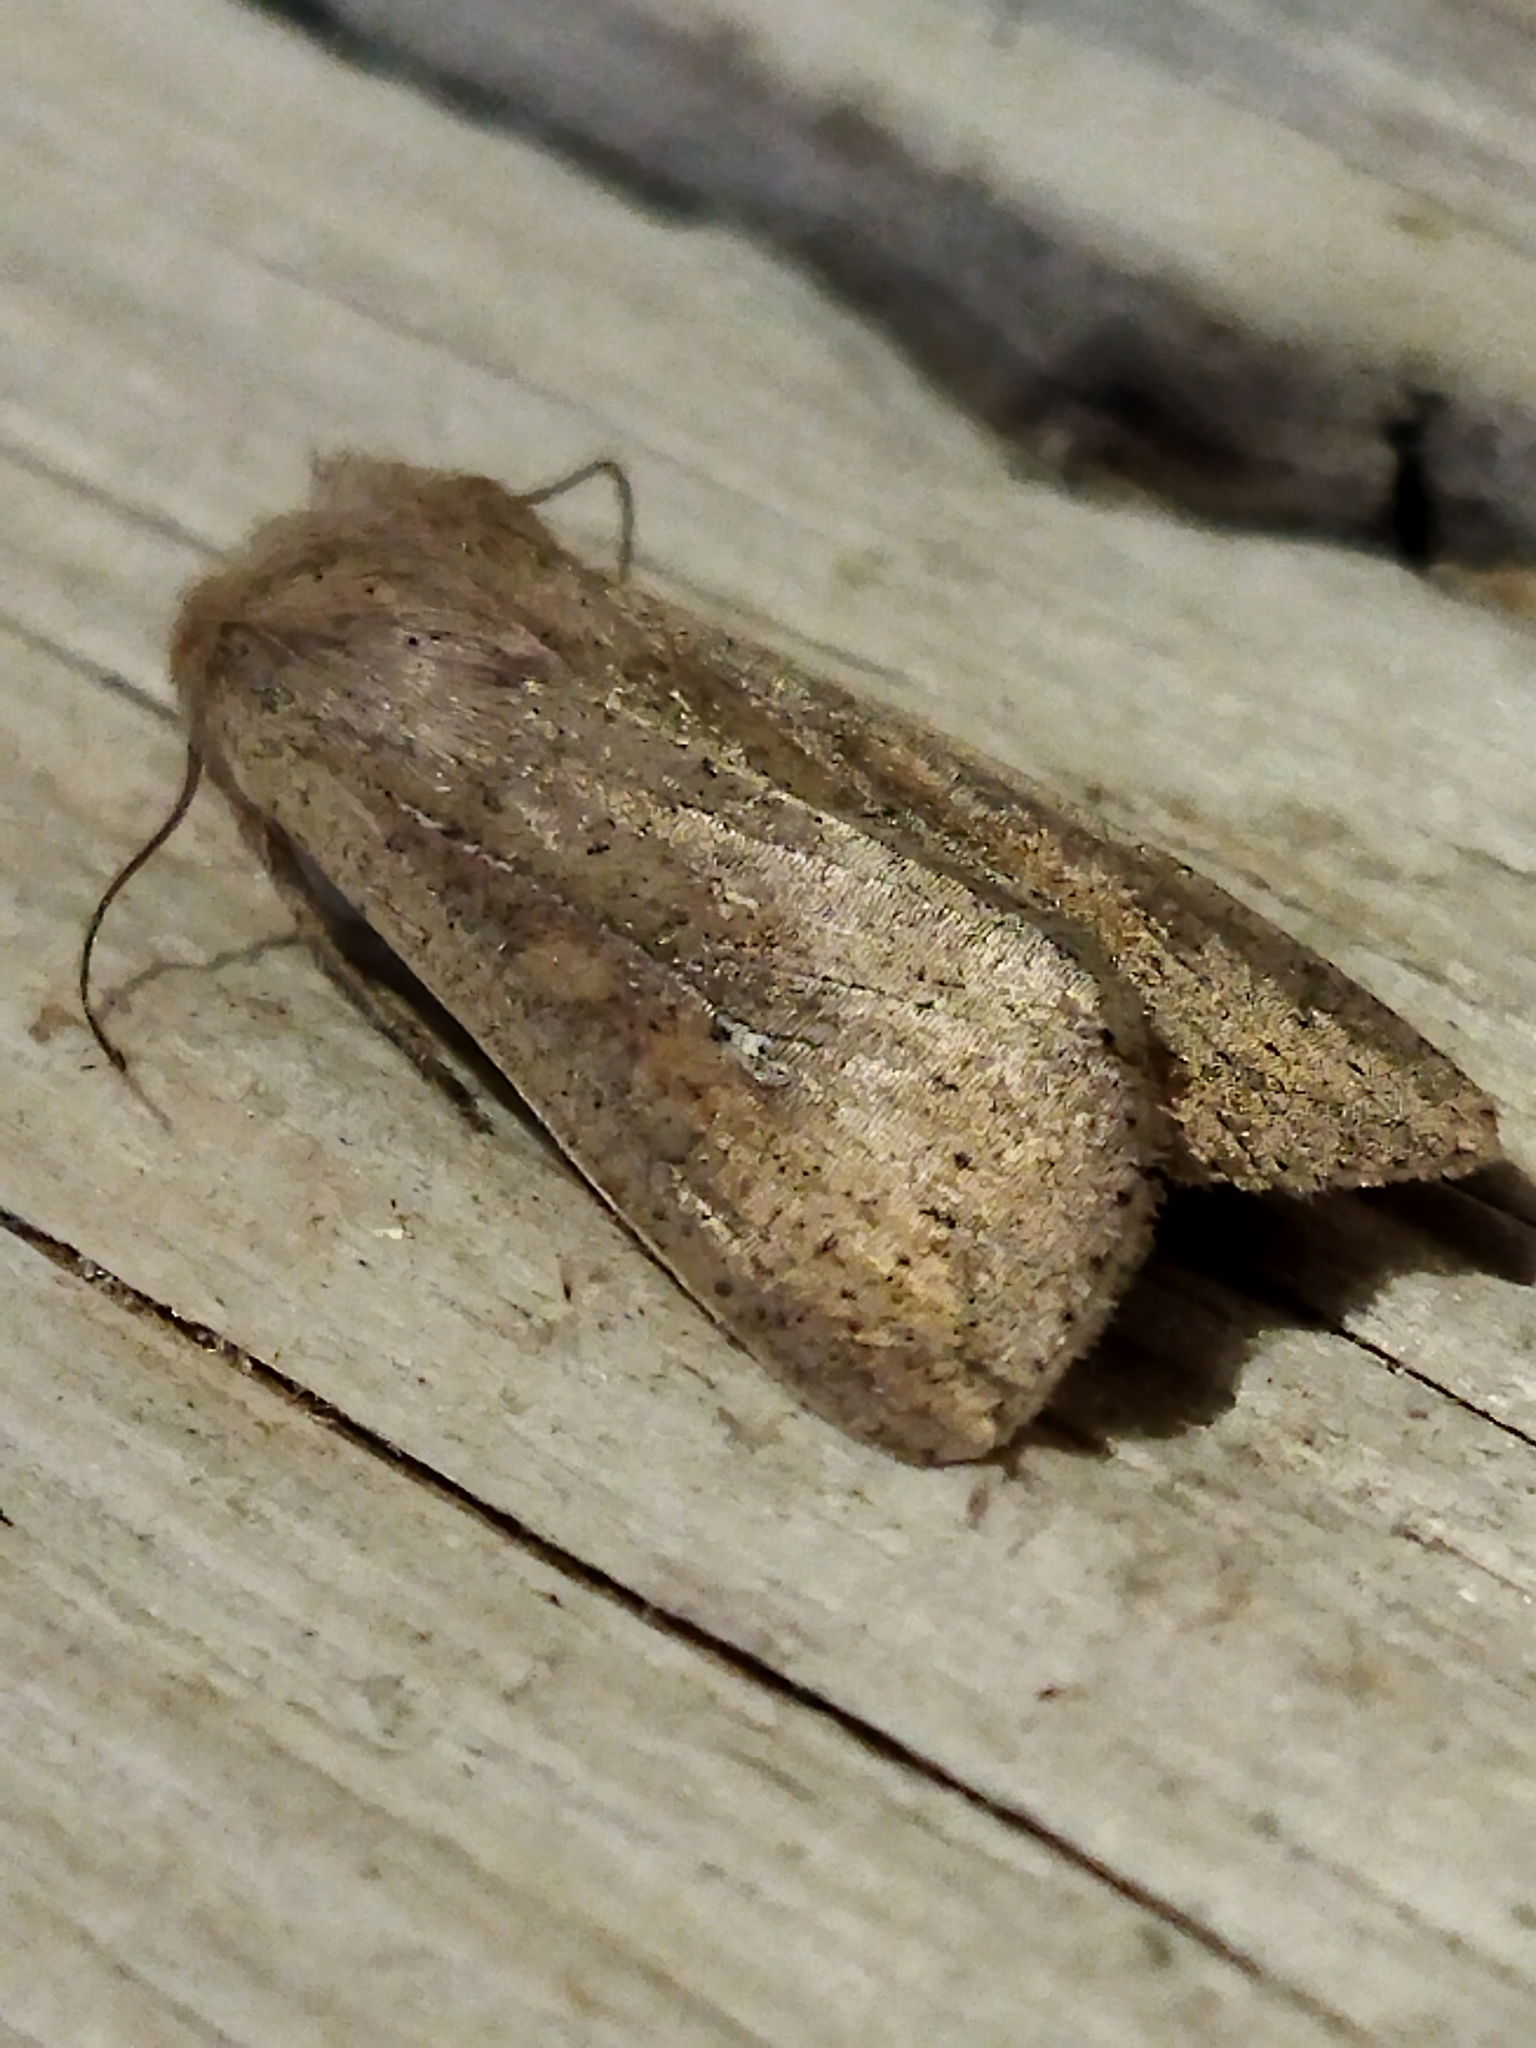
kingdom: Animalia
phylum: Arthropoda
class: Insecta
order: Lepidoptera
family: Noctuidae
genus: Mythimna
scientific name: Mythimna unipuncta
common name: White-speck
